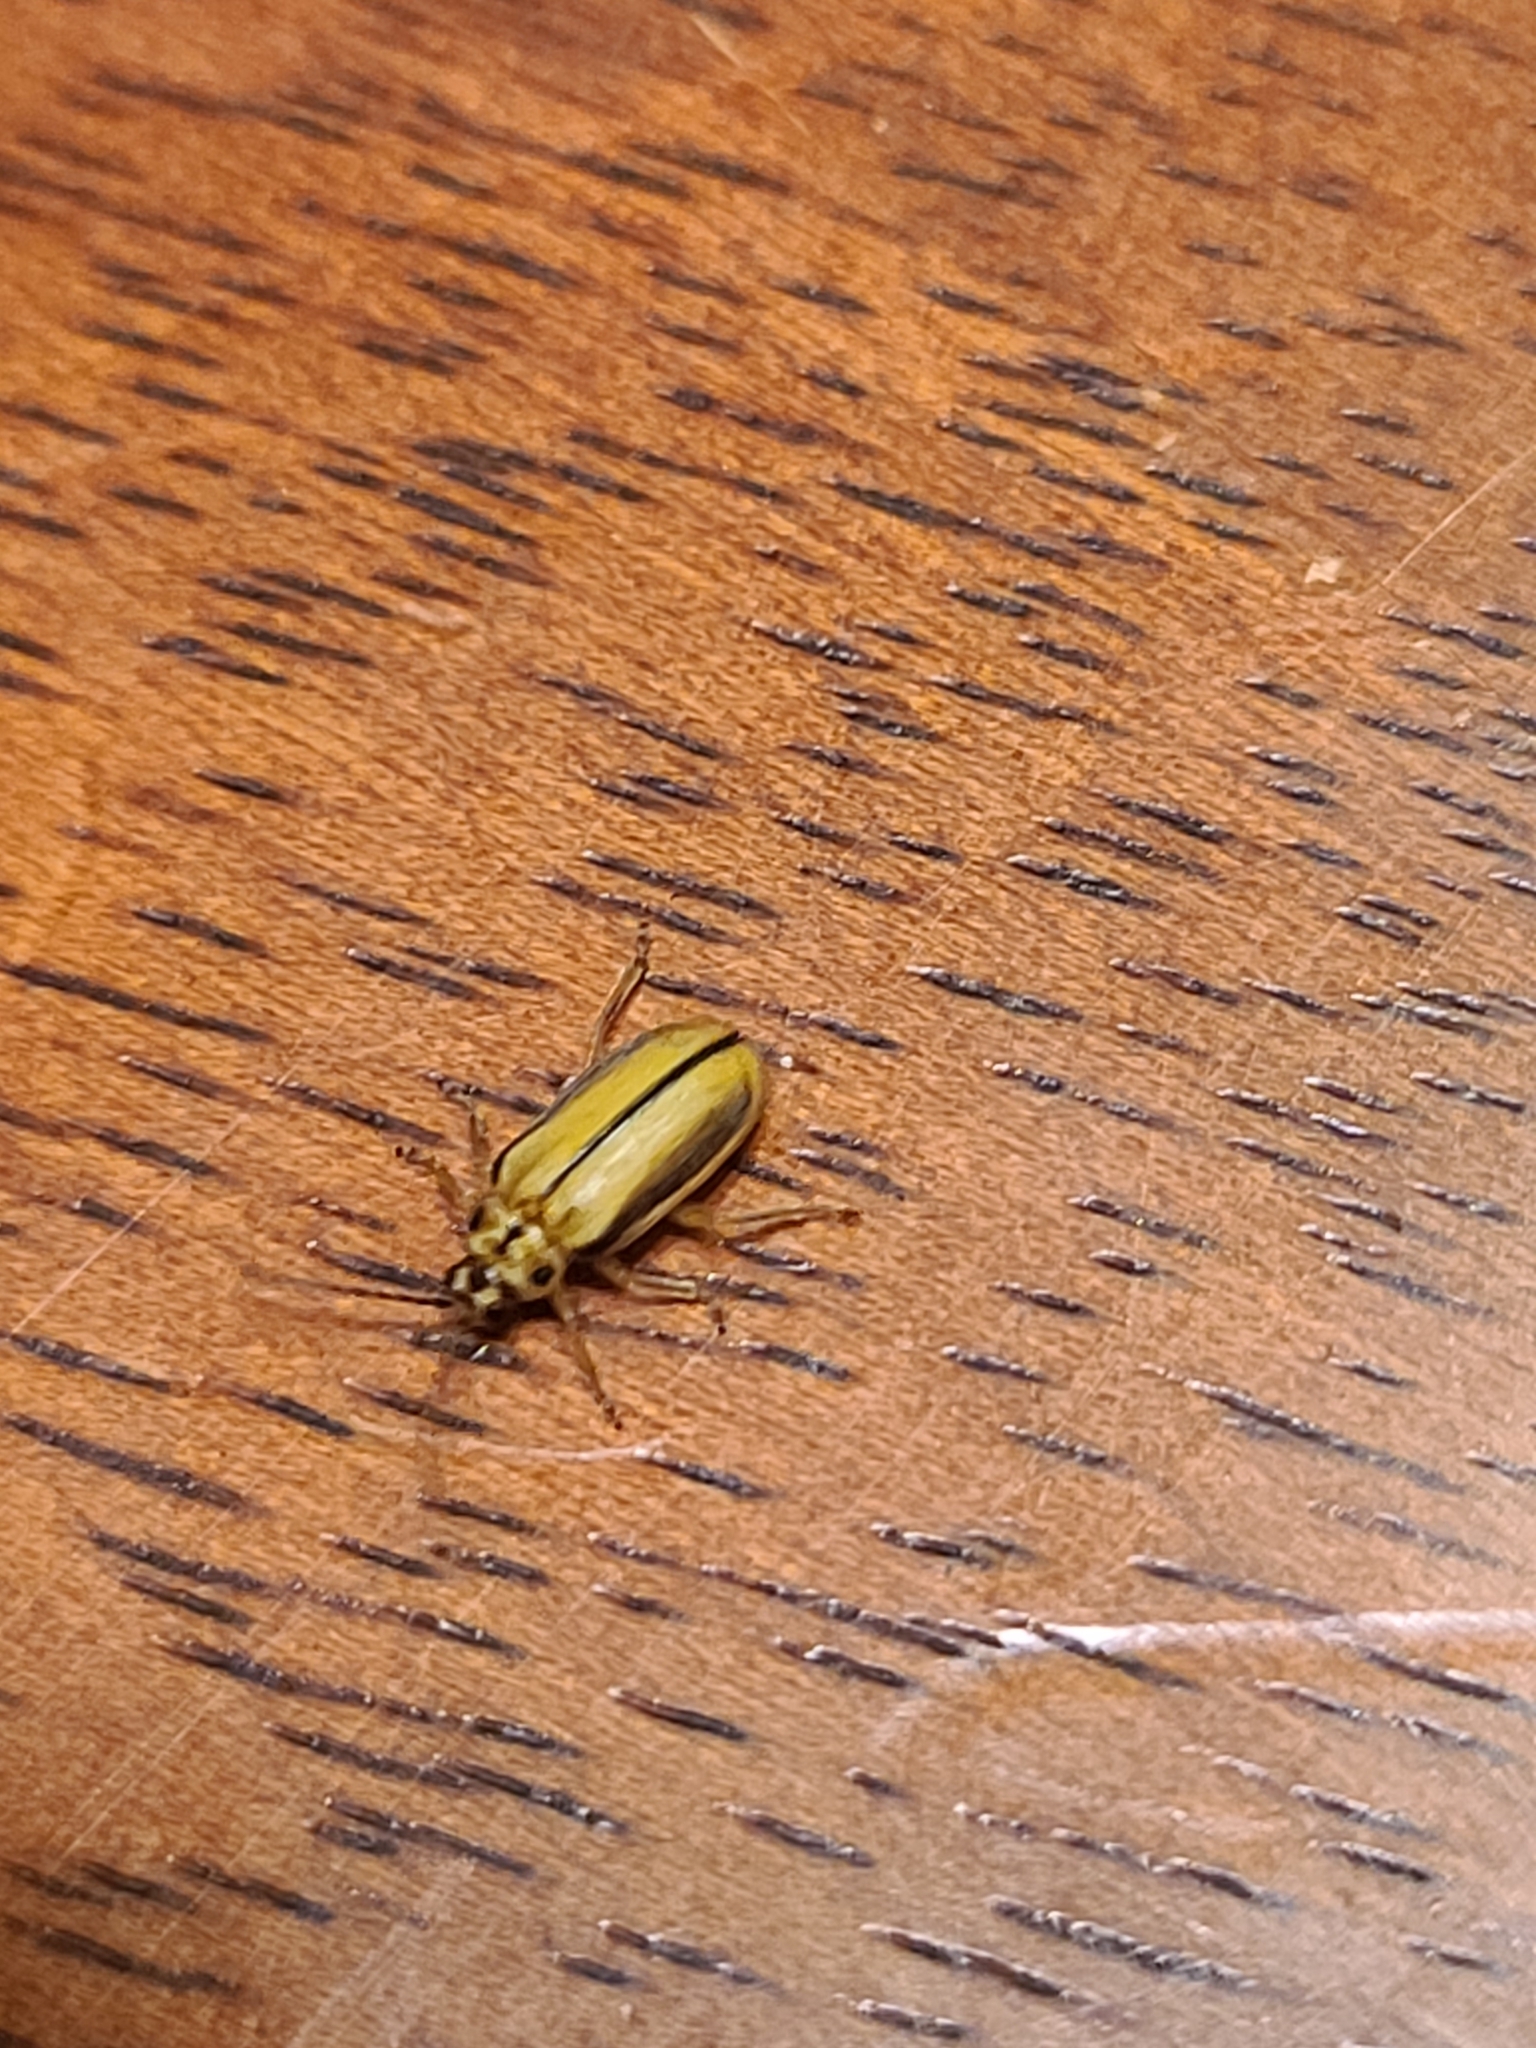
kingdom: Animalia
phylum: Arthropoda
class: Insecta
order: Coleoptera
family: Chrysomelidae
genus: Xanthogaleruca
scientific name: Xanthogaleruca luteola
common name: Elm leaf beetle
